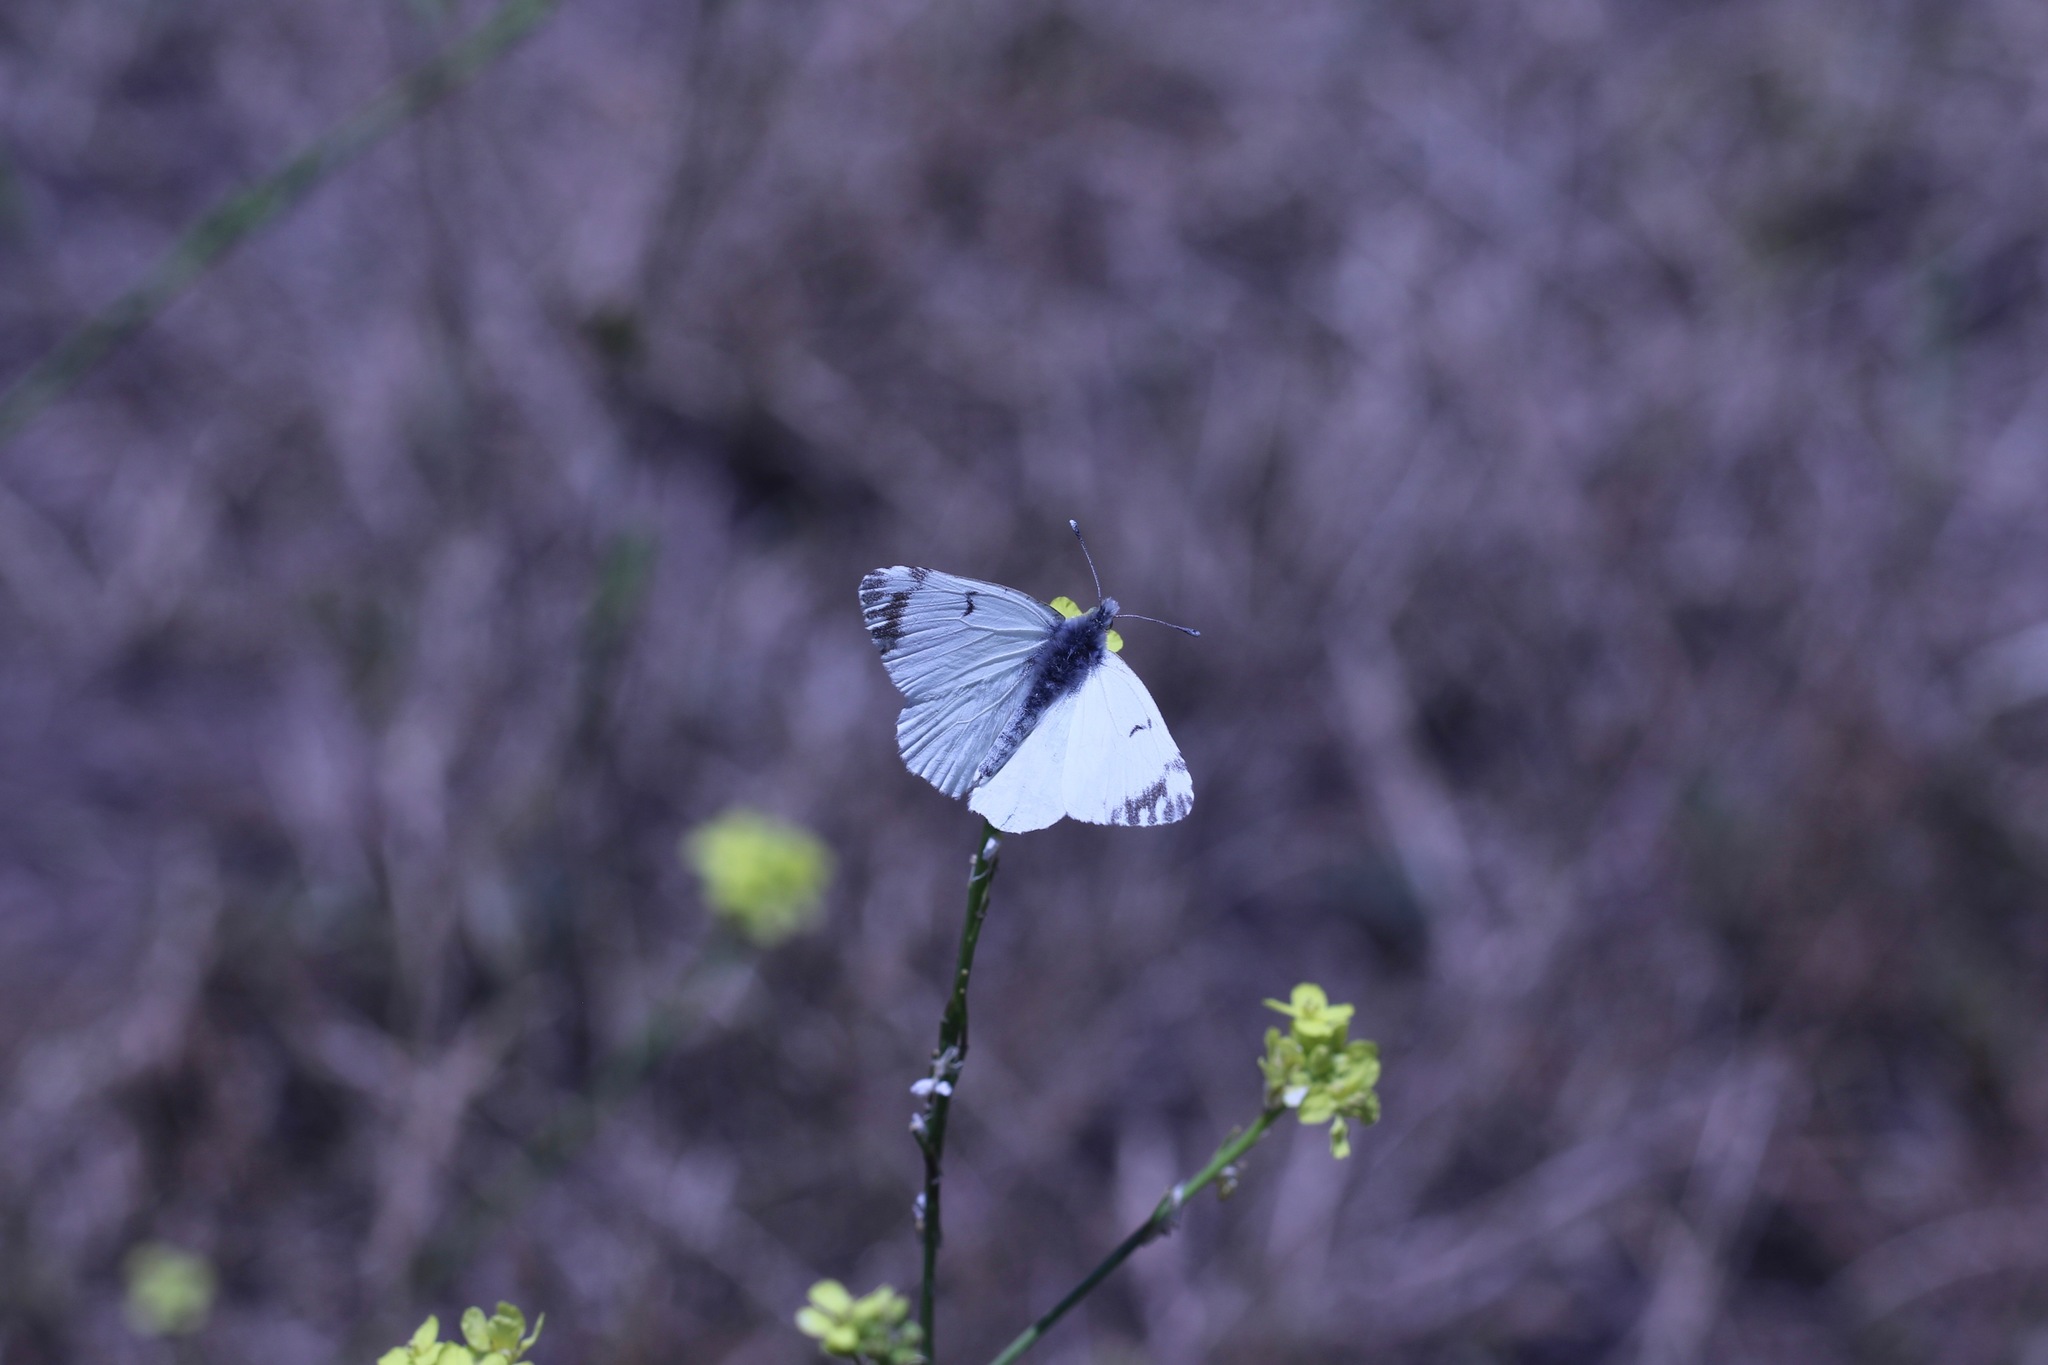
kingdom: Animalia
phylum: Arthropoda
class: Insecta
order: Lepidoptera
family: Pieridae
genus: Euchloe
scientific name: Euchloe ausonides
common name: Creamy marblewing
